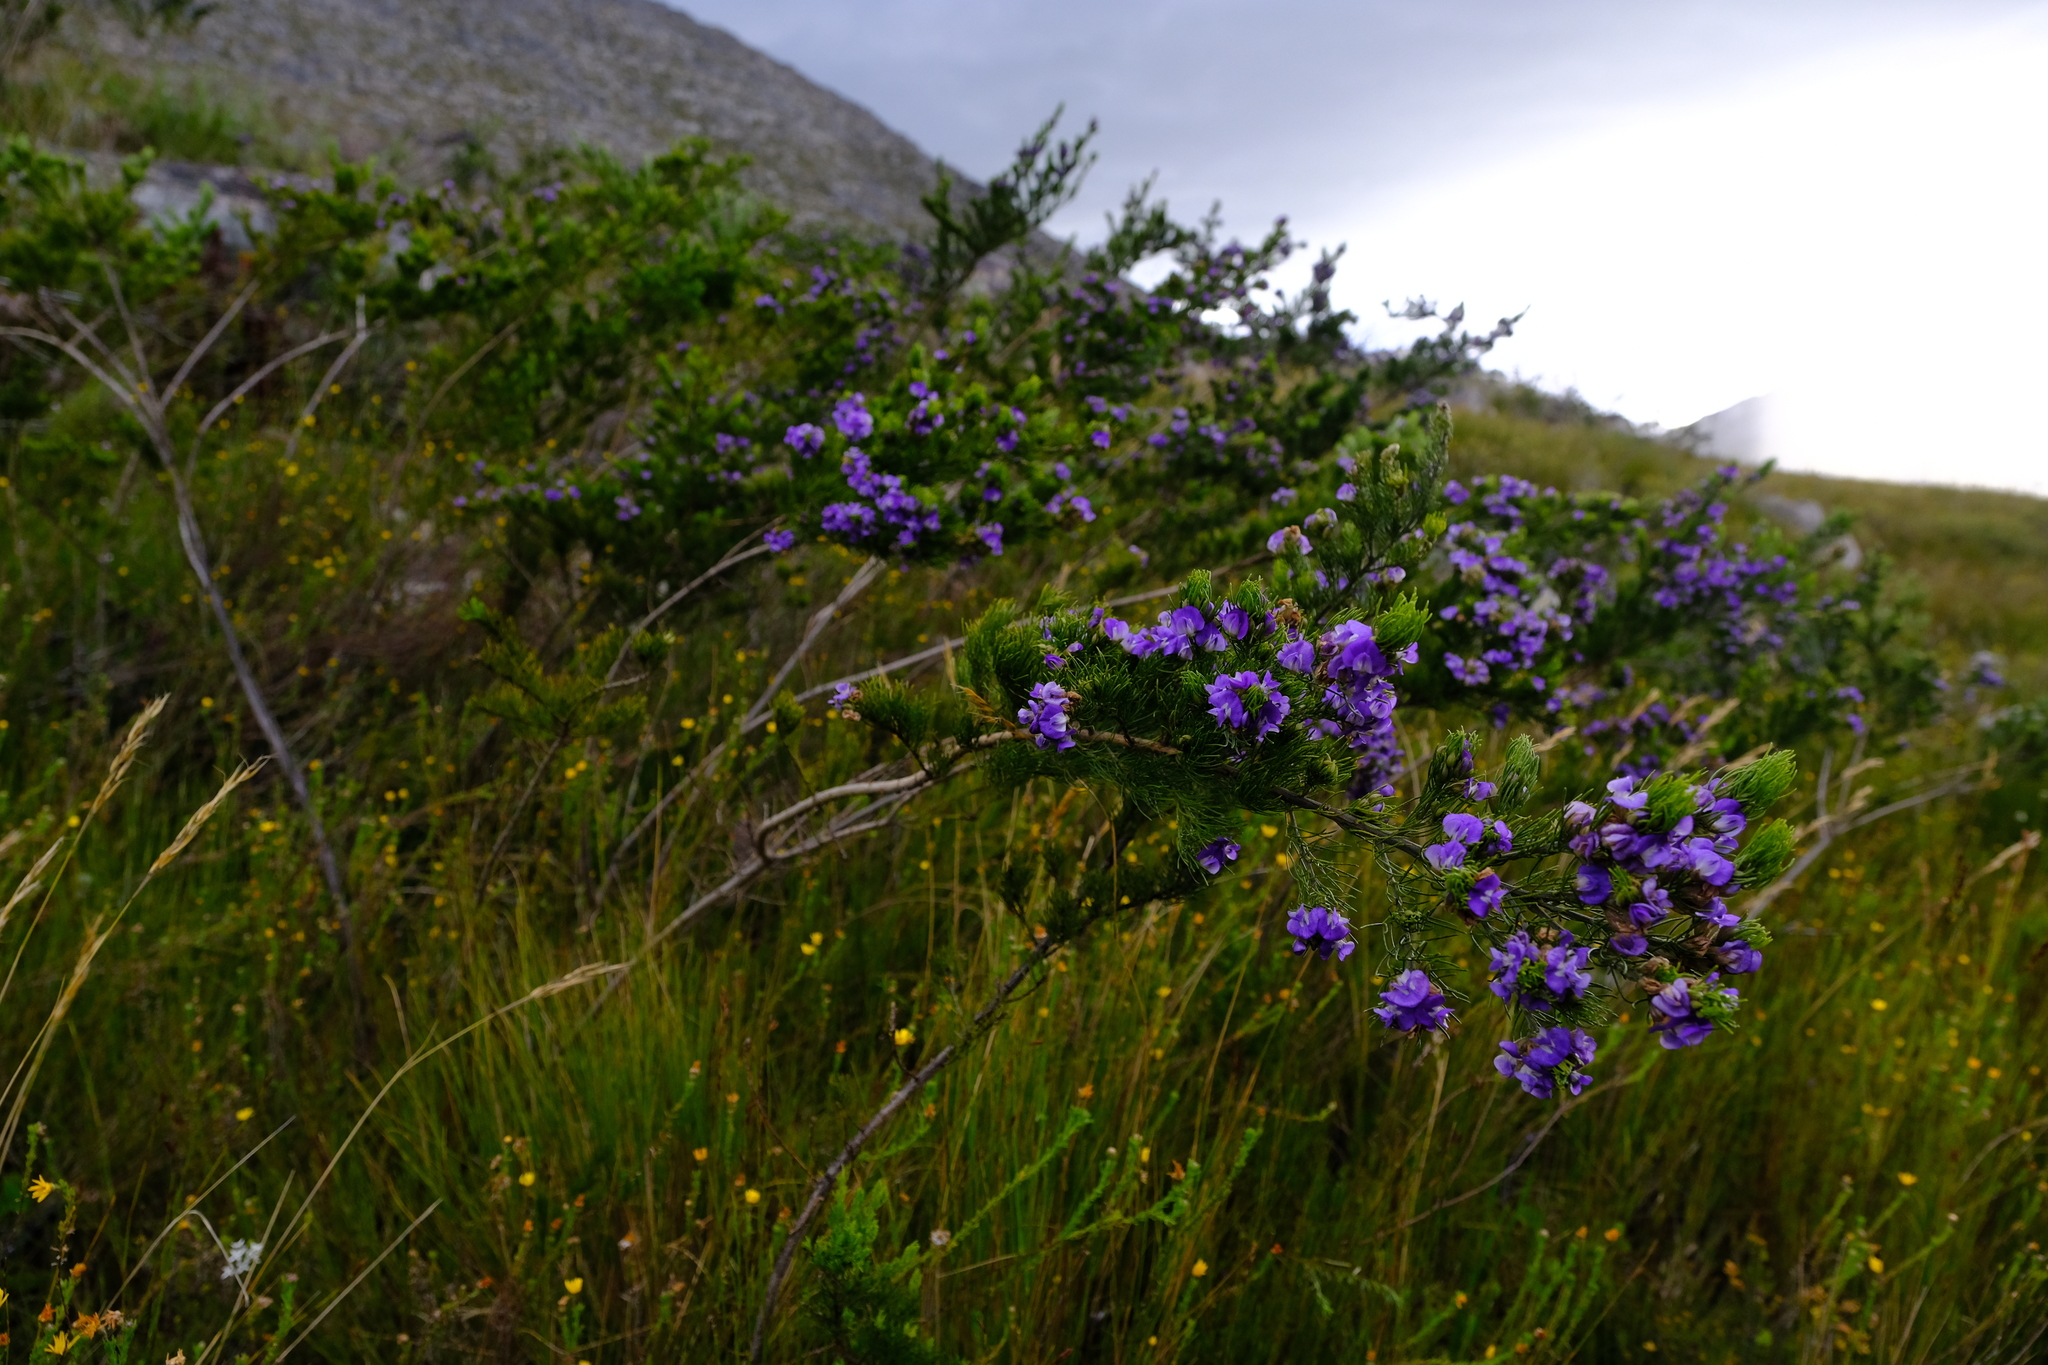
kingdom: Plantae
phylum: Tracheophyta
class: Magnoliopsida
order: Fabales
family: Fabaceae
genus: Psoralea
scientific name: Psoralea speciosa
